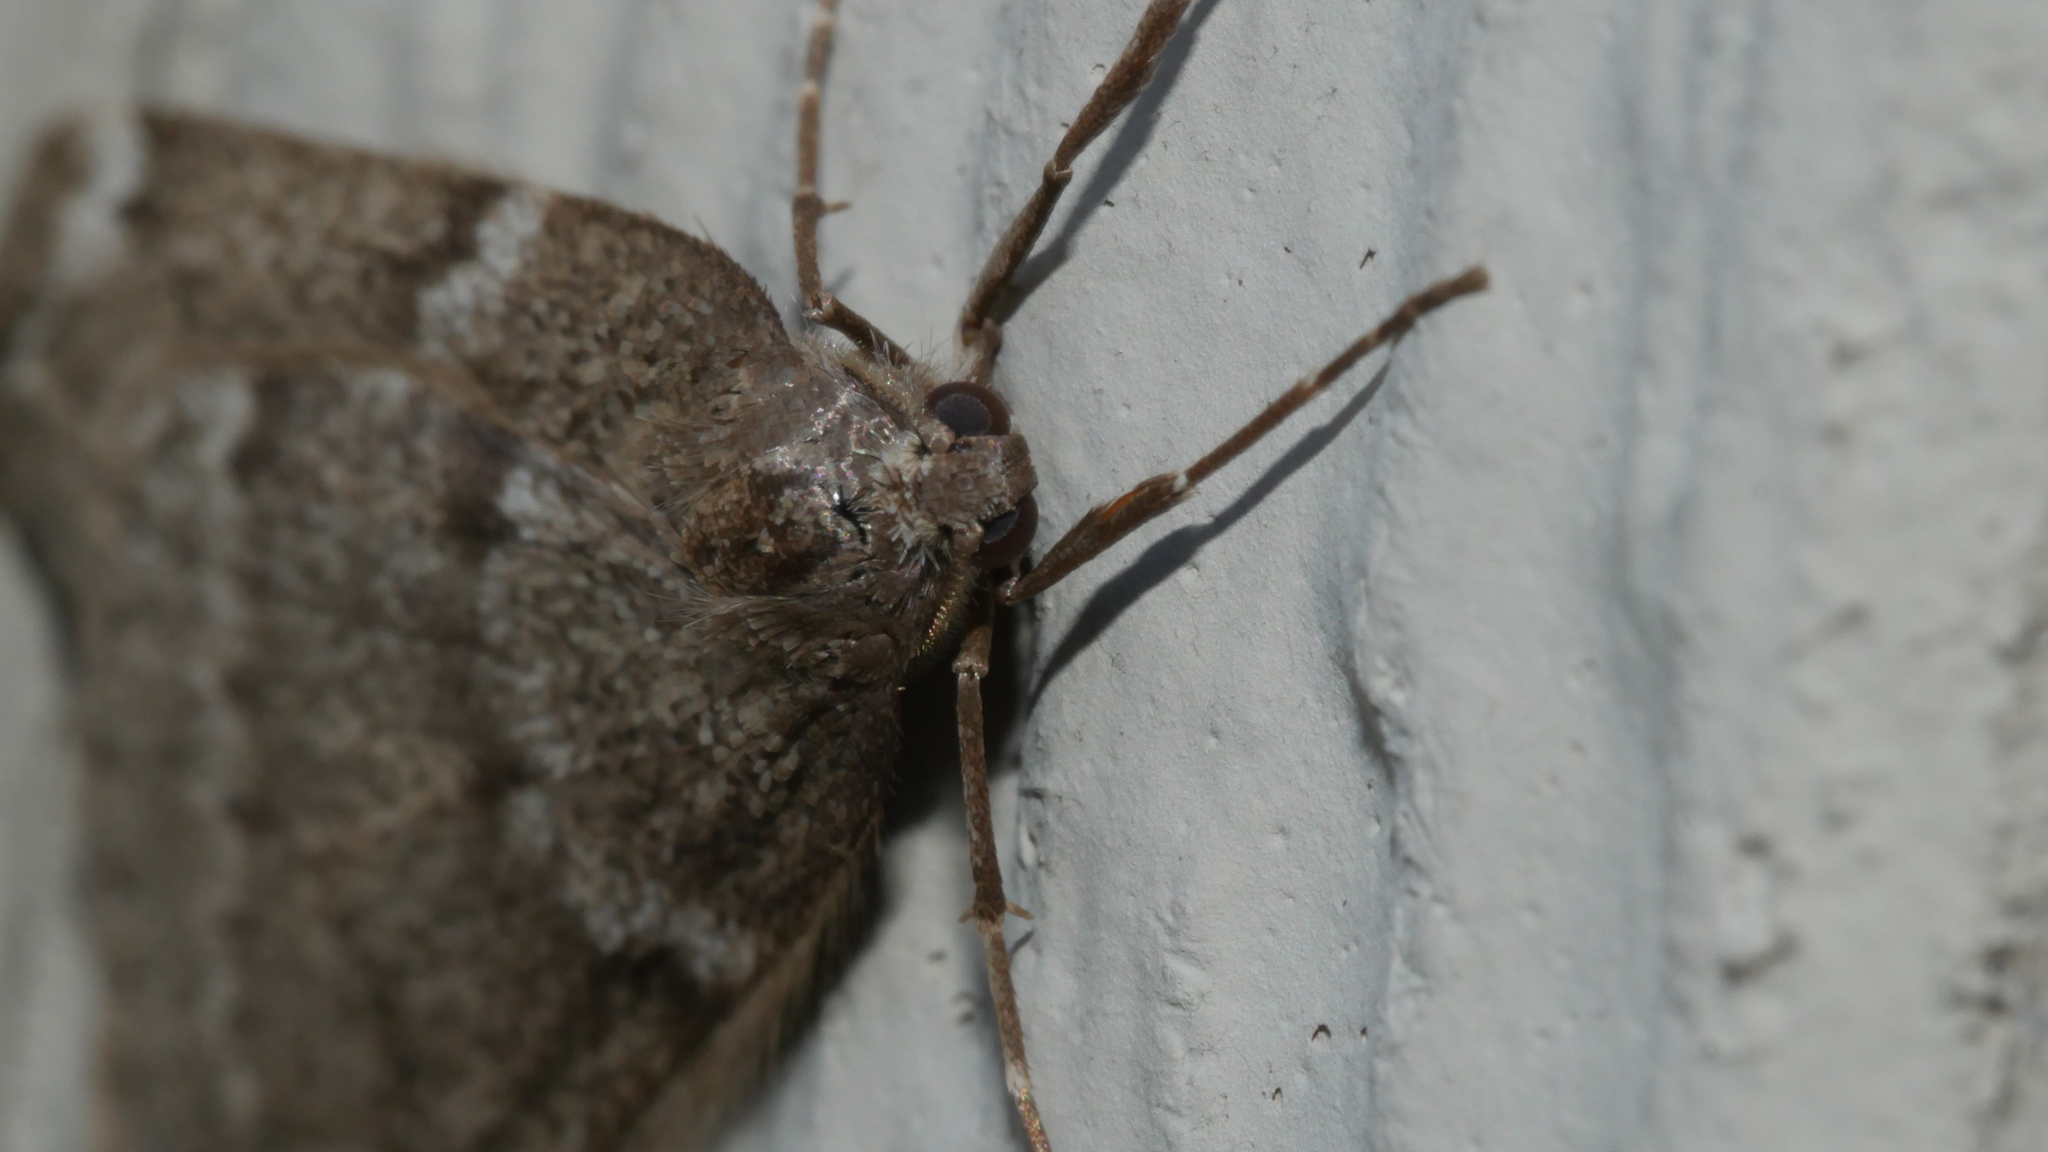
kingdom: Animalia
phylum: Arthropoda
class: Insecta
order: Lepidoptera
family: Geometridae
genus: Alsophila
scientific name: Alsophila pometaria
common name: Fall cankerworm
